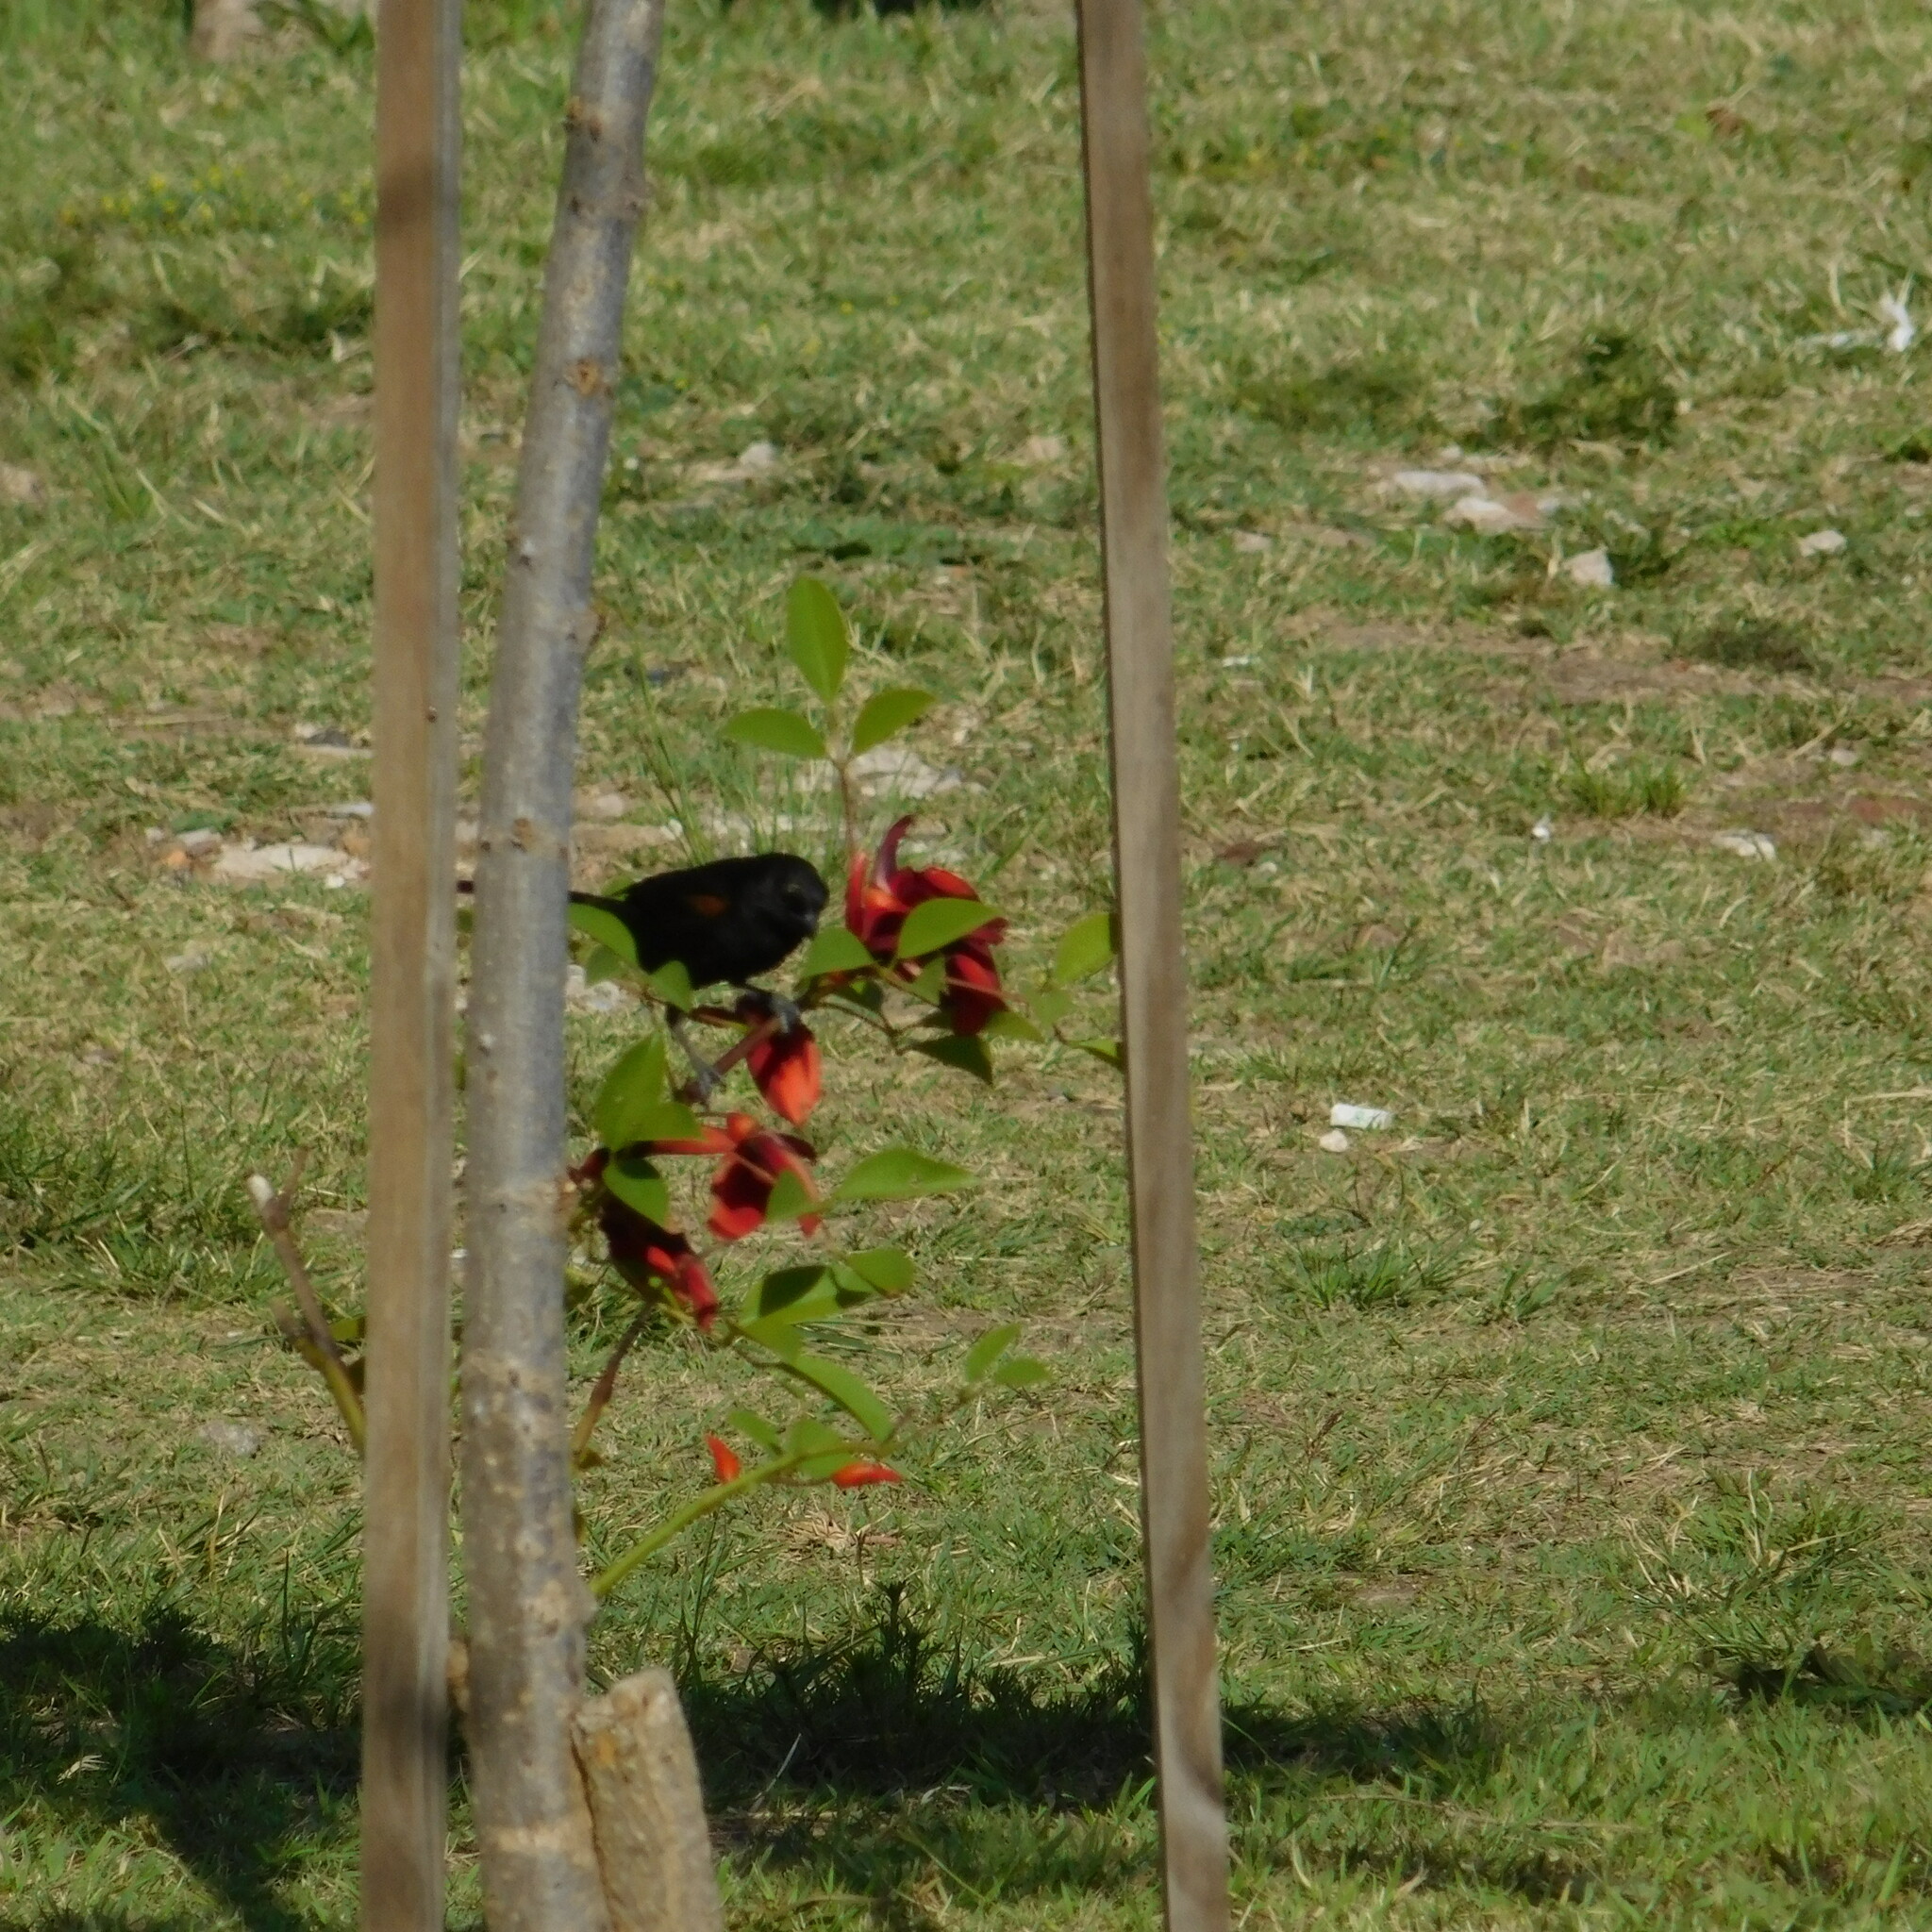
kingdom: Animalia
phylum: Chordata
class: Aves
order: Passeriformes
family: Icteridae
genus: Icterus
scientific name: Icterus cayanensis
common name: Epaulet oriole
